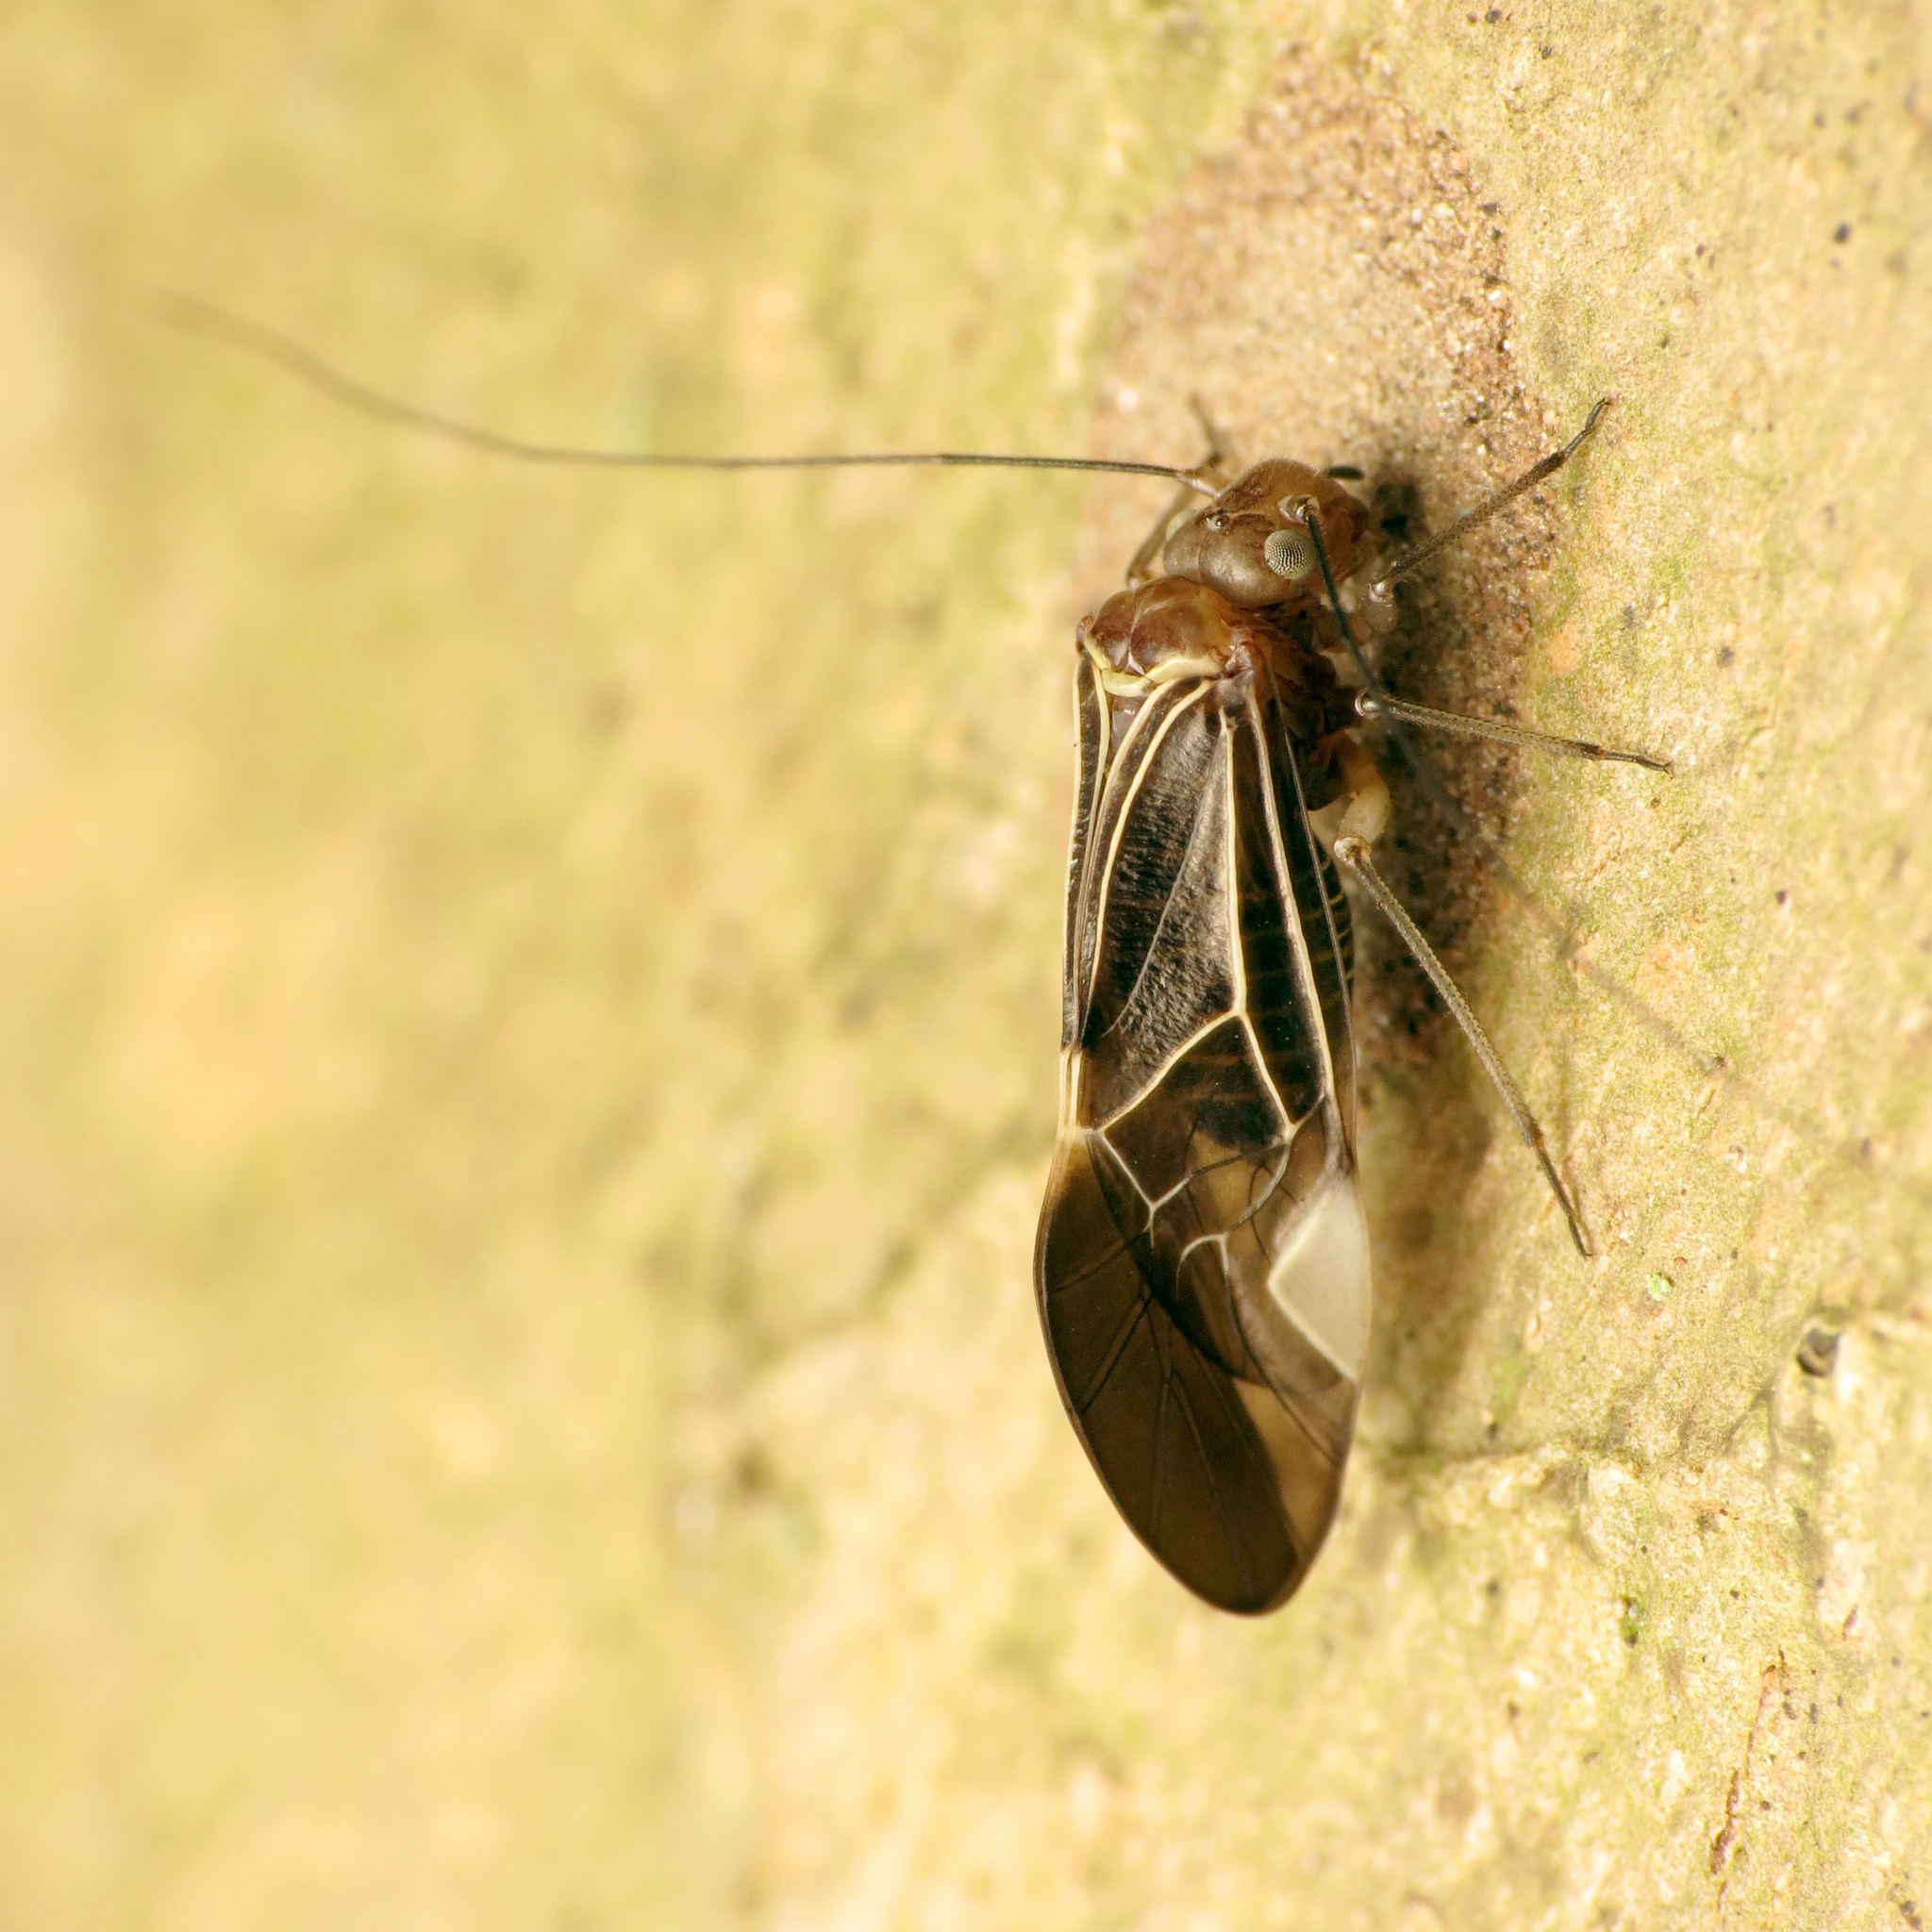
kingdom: Animalia
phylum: Arthropoda
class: Insecta
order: Psocodea
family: Psocidae
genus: Cerastipsocus
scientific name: Cerastipsocus venosus
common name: Tree cattle
